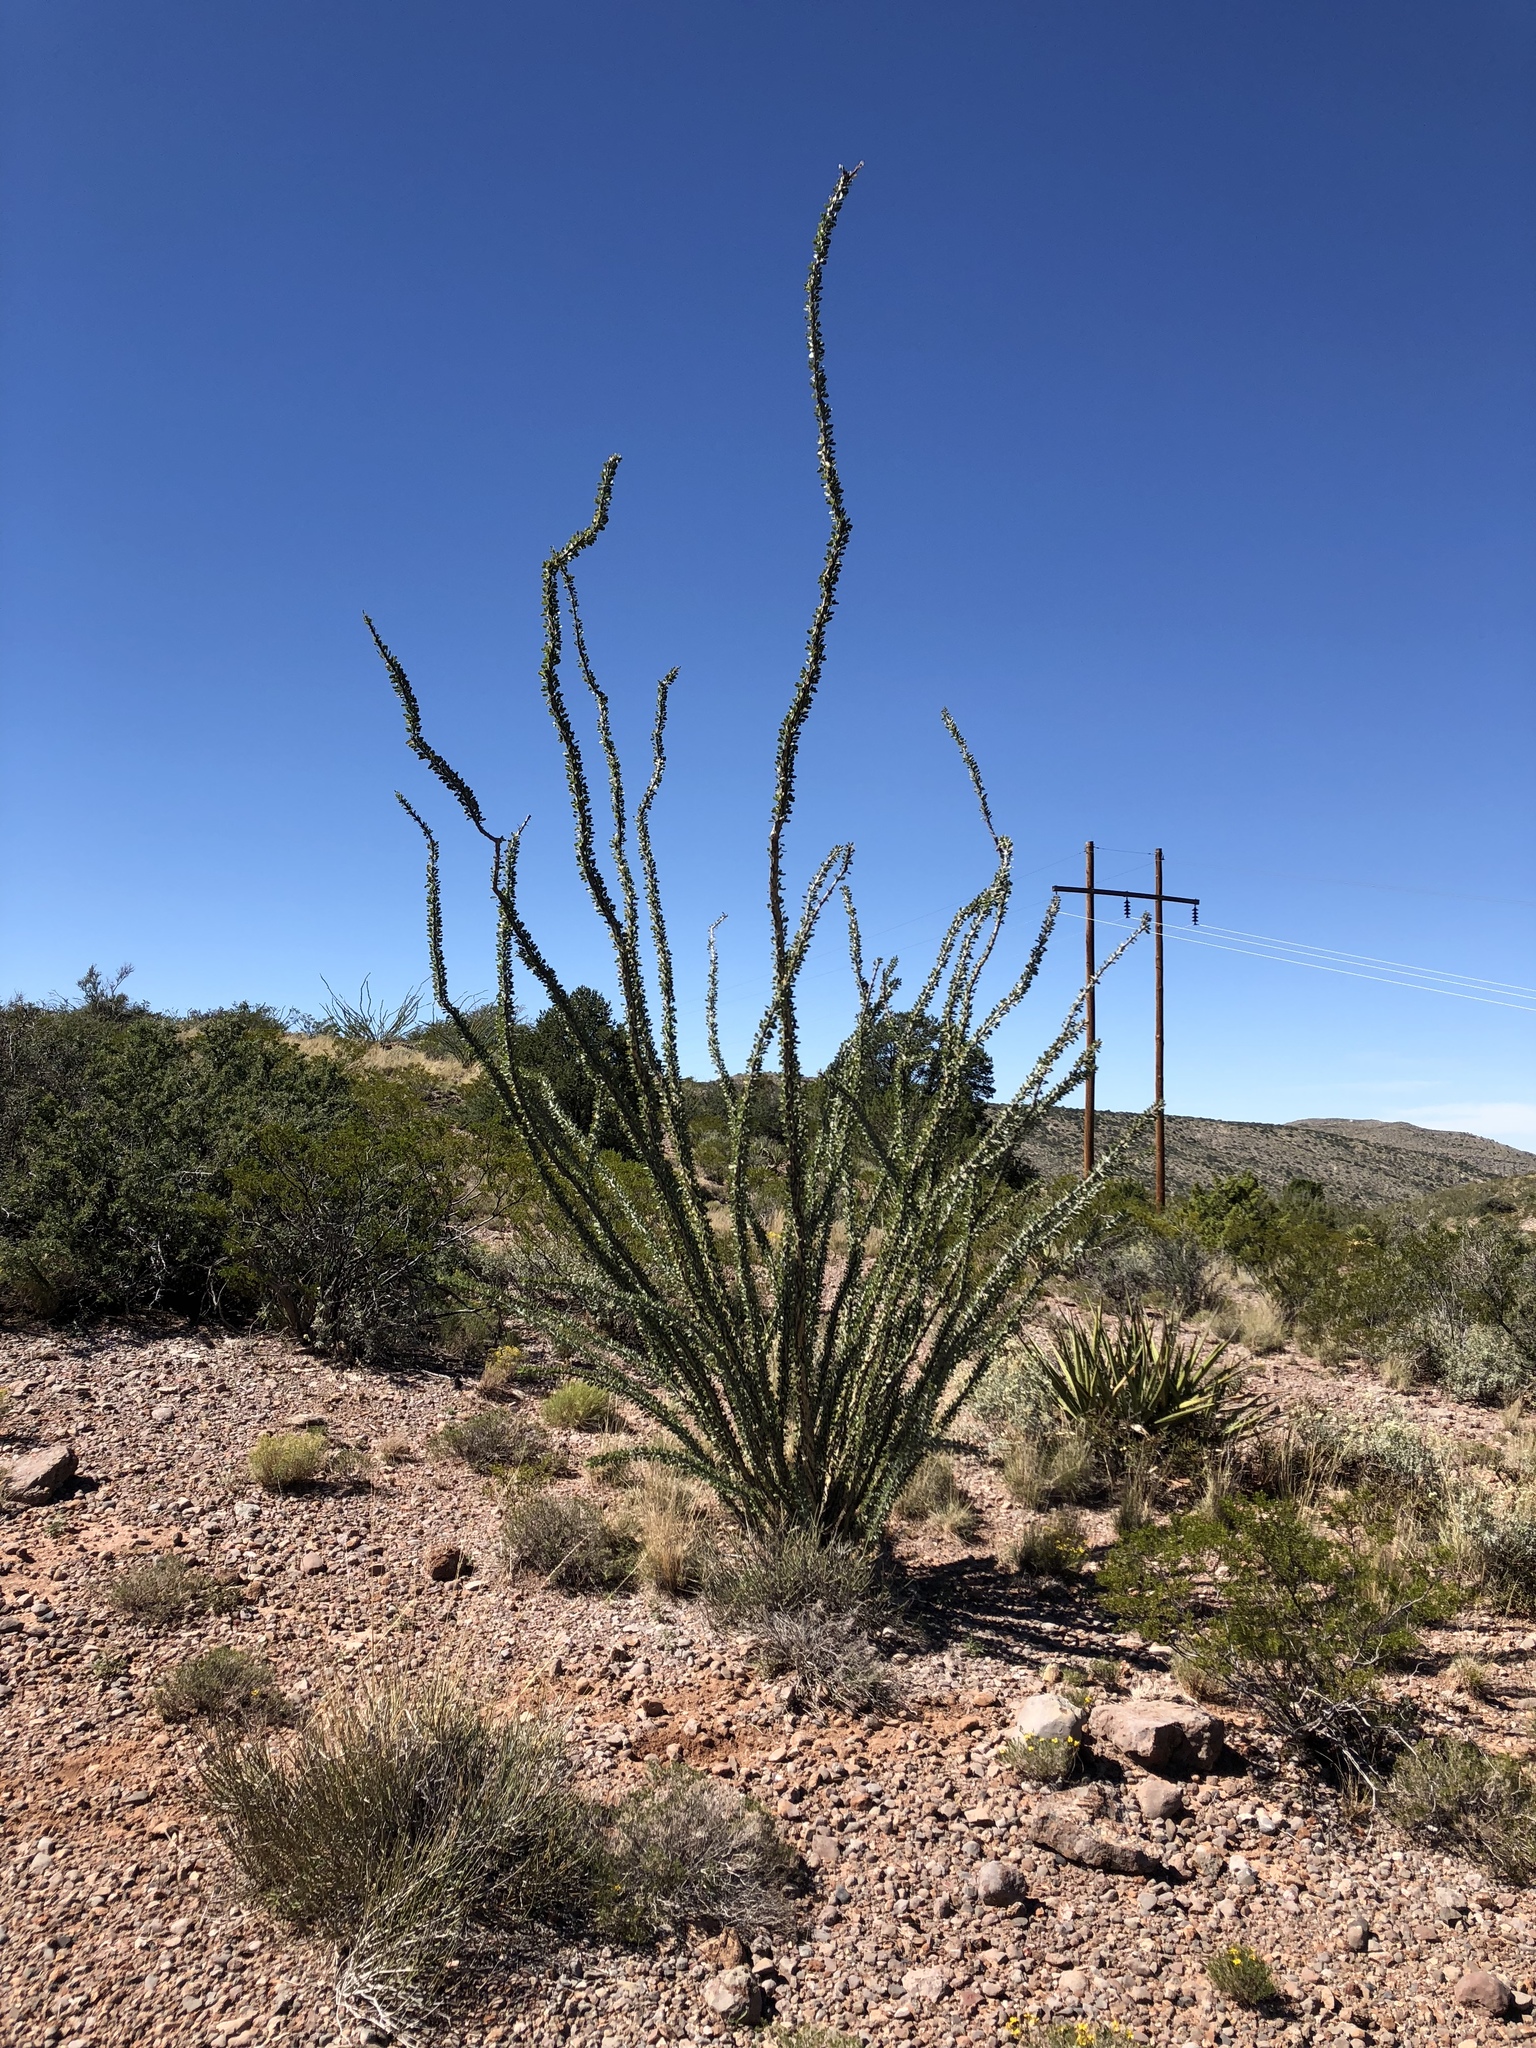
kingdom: Plantae
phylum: Tracheophyta
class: Magnoliopsida
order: Ericales
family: Fouquieriaceae
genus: Fouquieria
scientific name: Fouquieria splendens
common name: Vine-cactus
